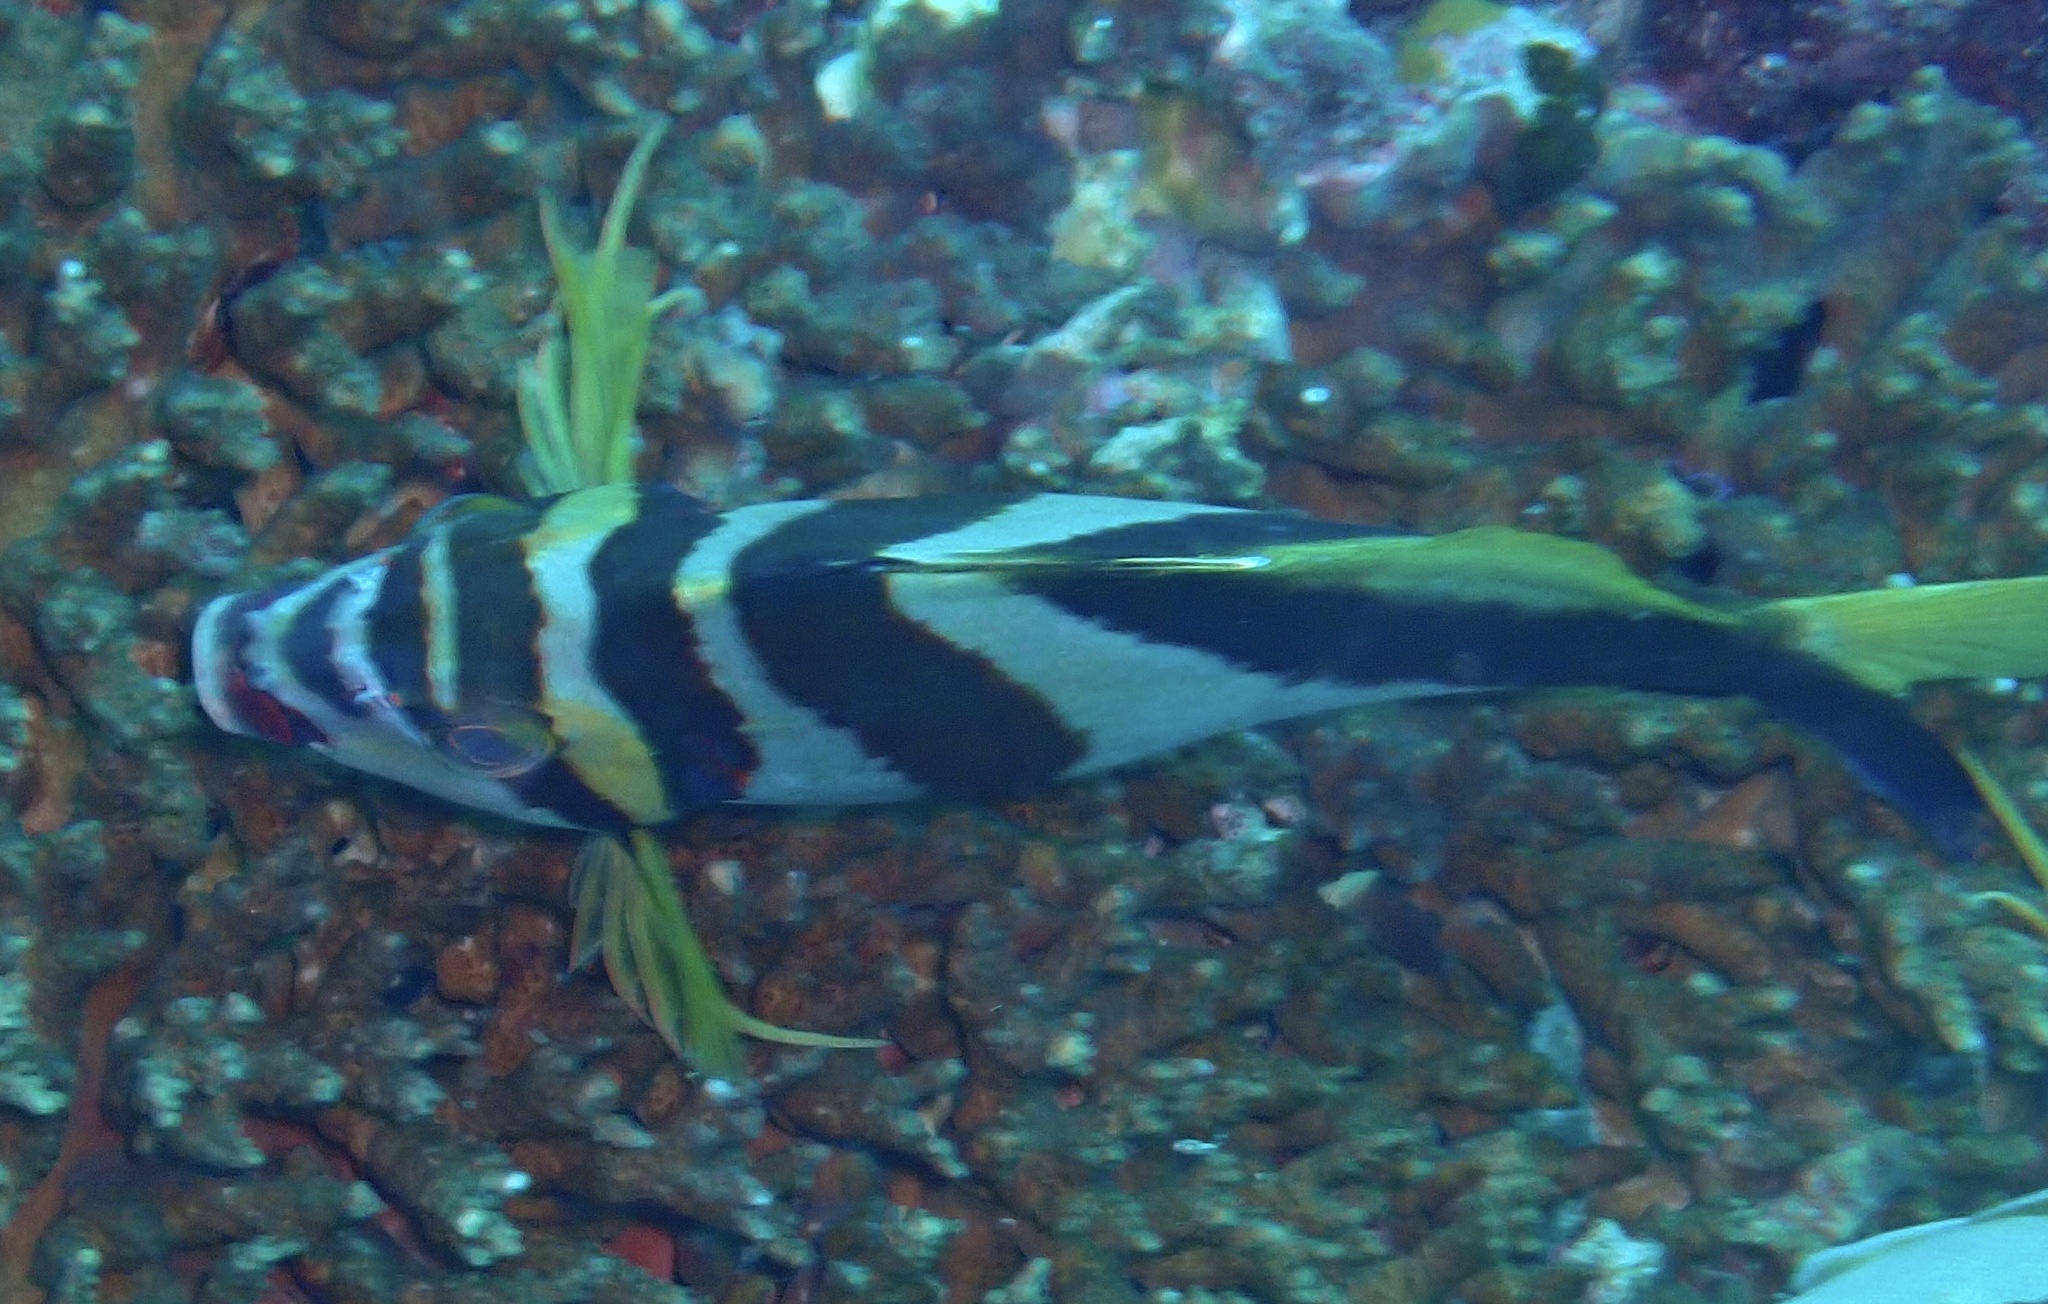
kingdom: Animalia
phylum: Chordata
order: Perciformes
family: Cheilodactylidae
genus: Cheilodactylus
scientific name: Cheilodactylus vestitus
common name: Crested morwong
